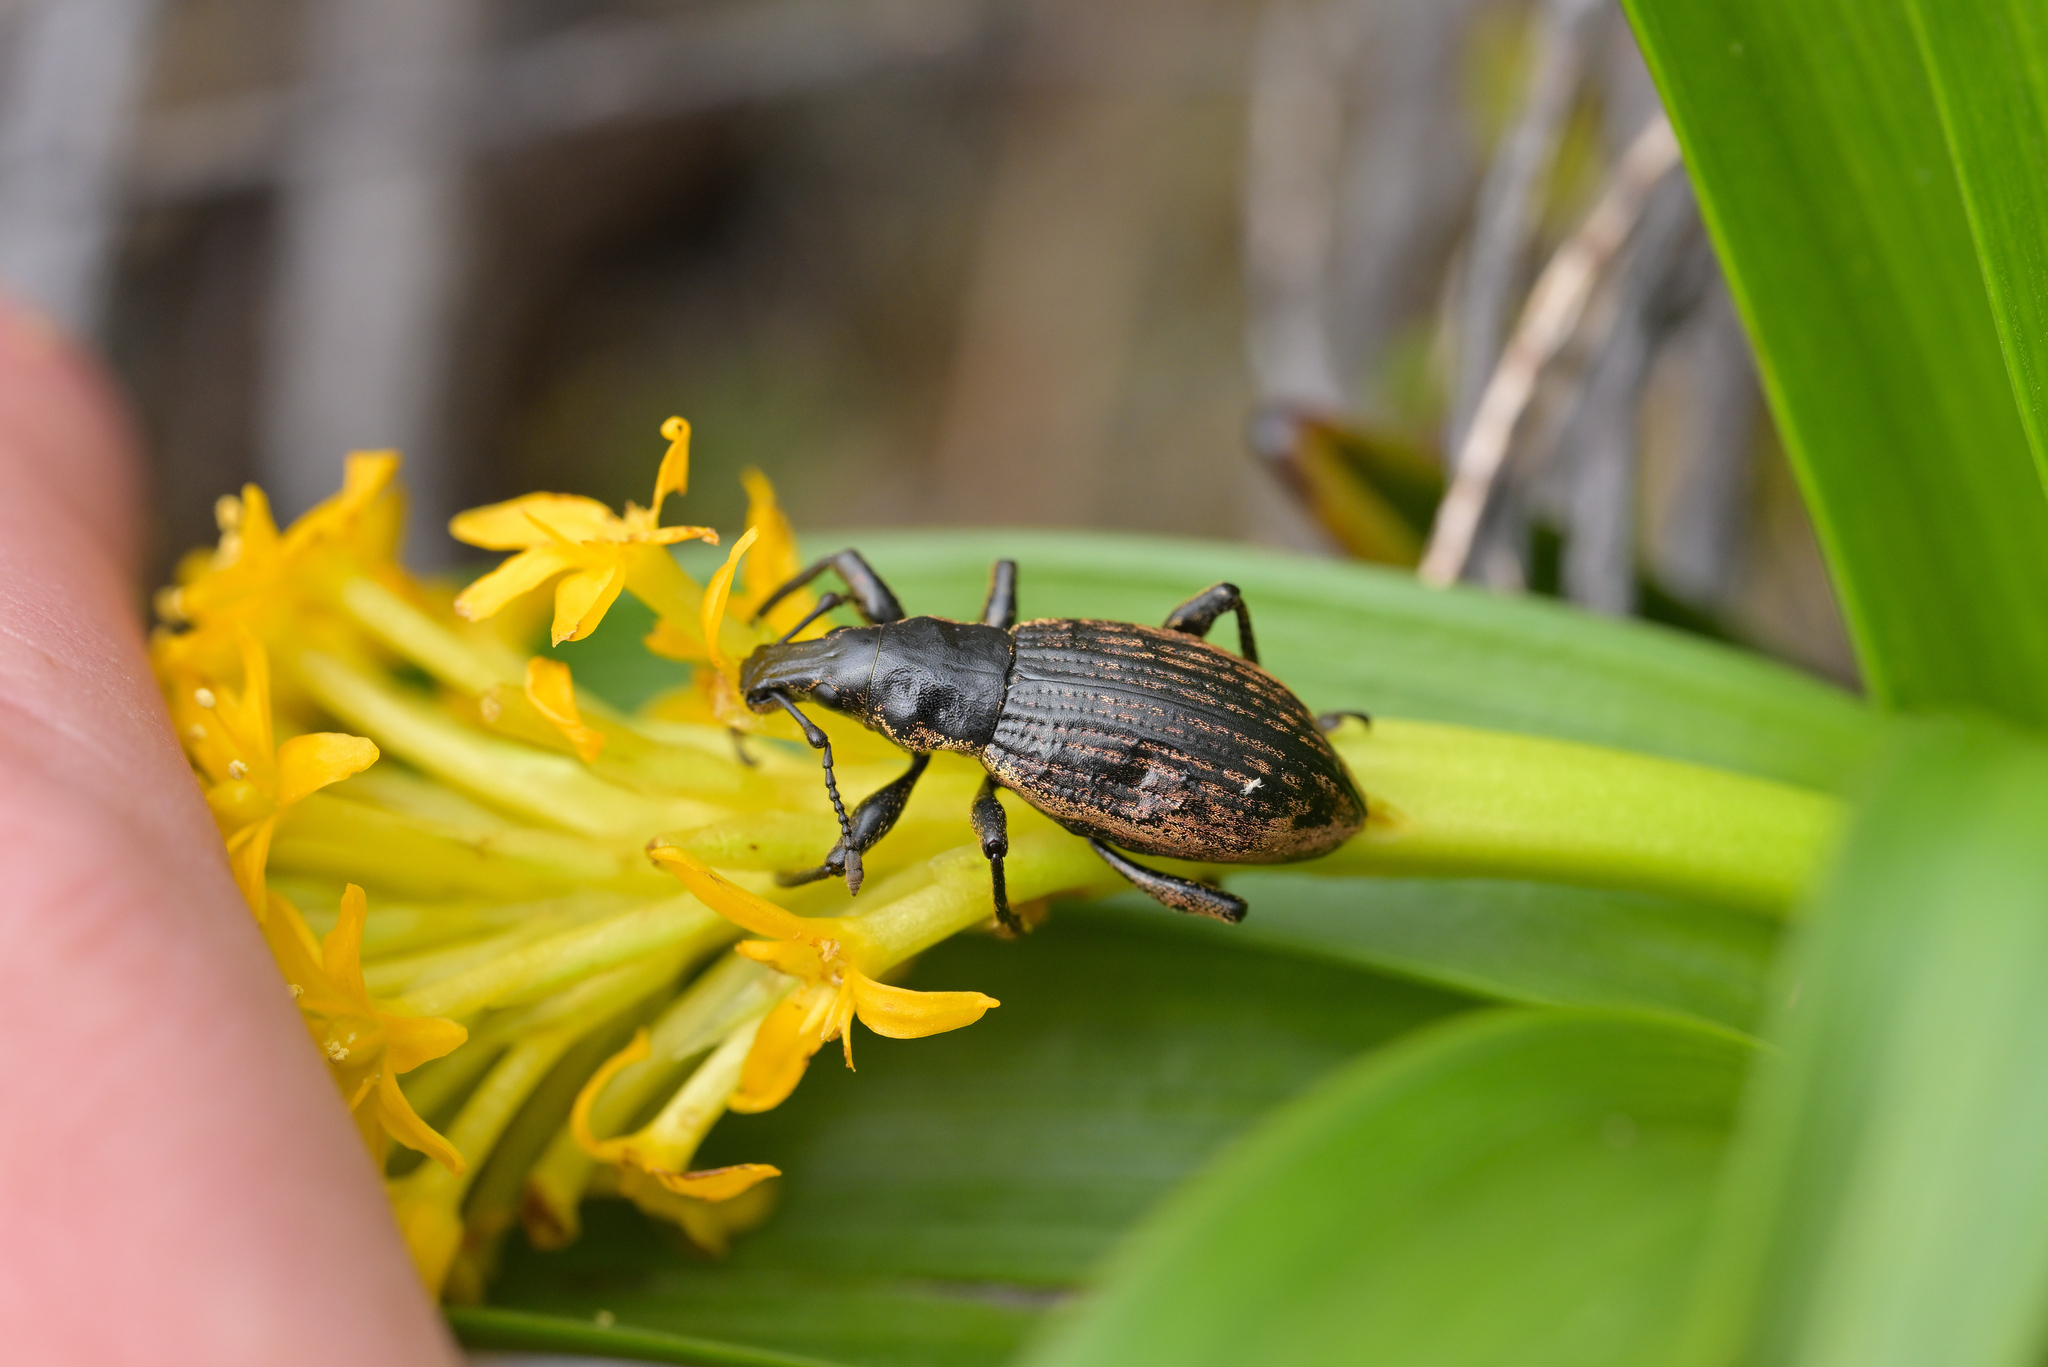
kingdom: Animalia
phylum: Arthropoda
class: Insecta
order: Coleoptera
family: Curculionidae
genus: Oclandius
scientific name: Oclandius cinereus
